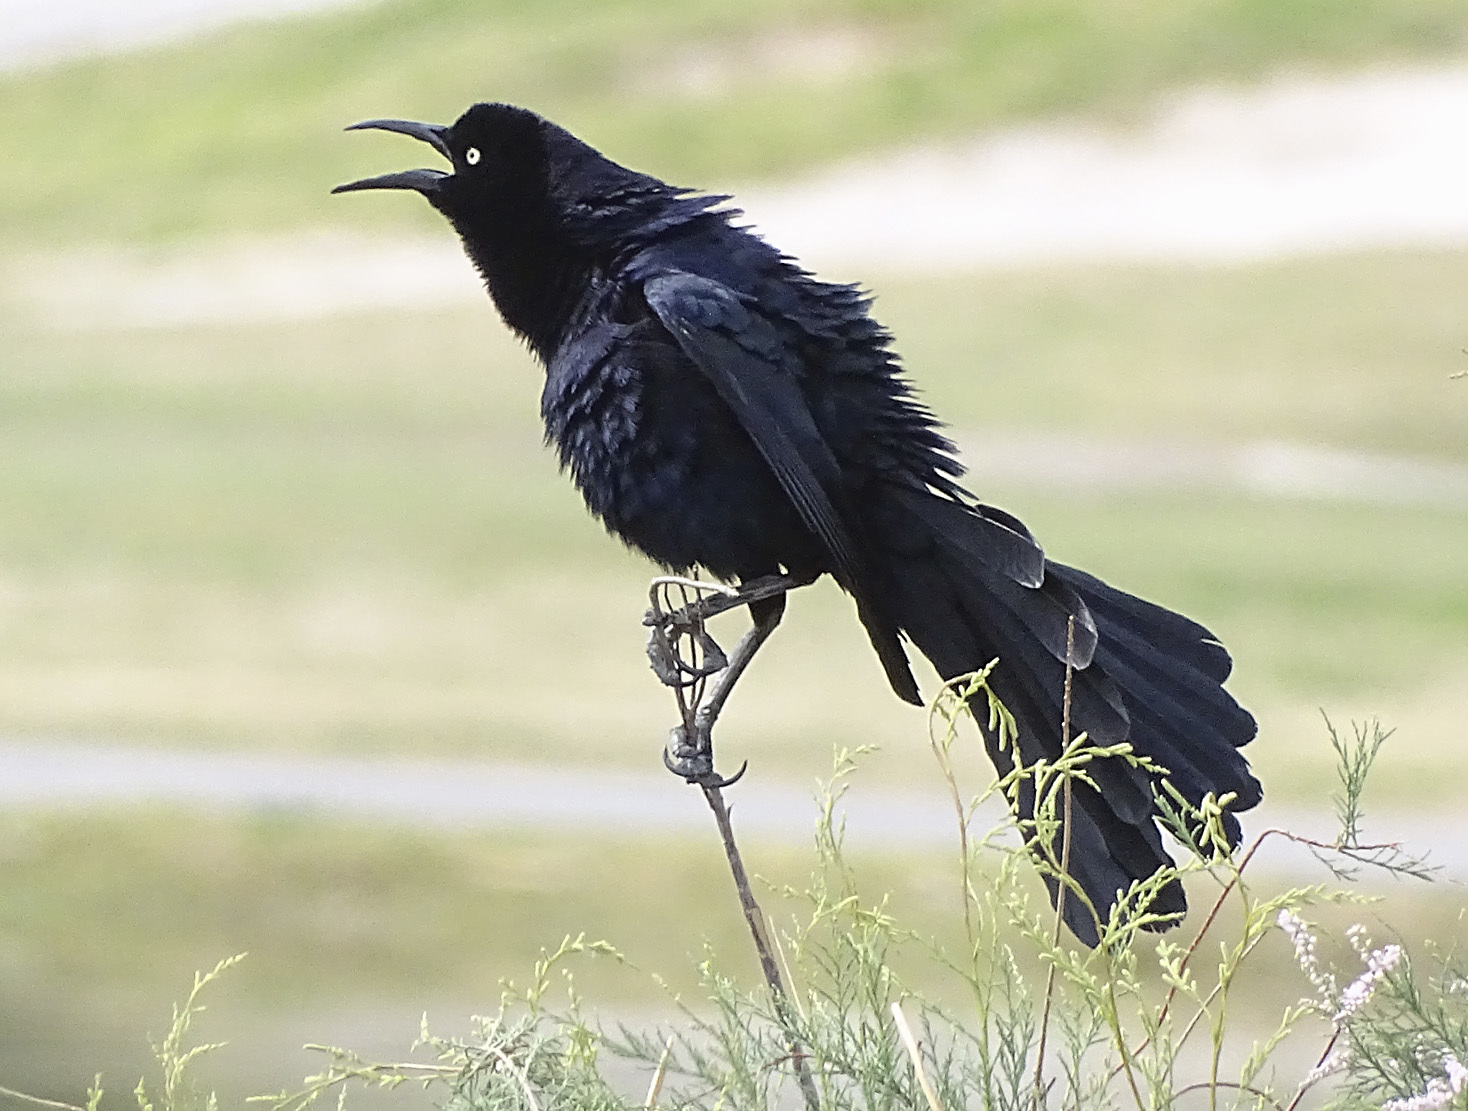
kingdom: Animalia
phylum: Chordata
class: Aves
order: Passeriformes
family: Icteridae
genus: Quiscalus
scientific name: Quiscalus mexicanus
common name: Great-tailed grackle
